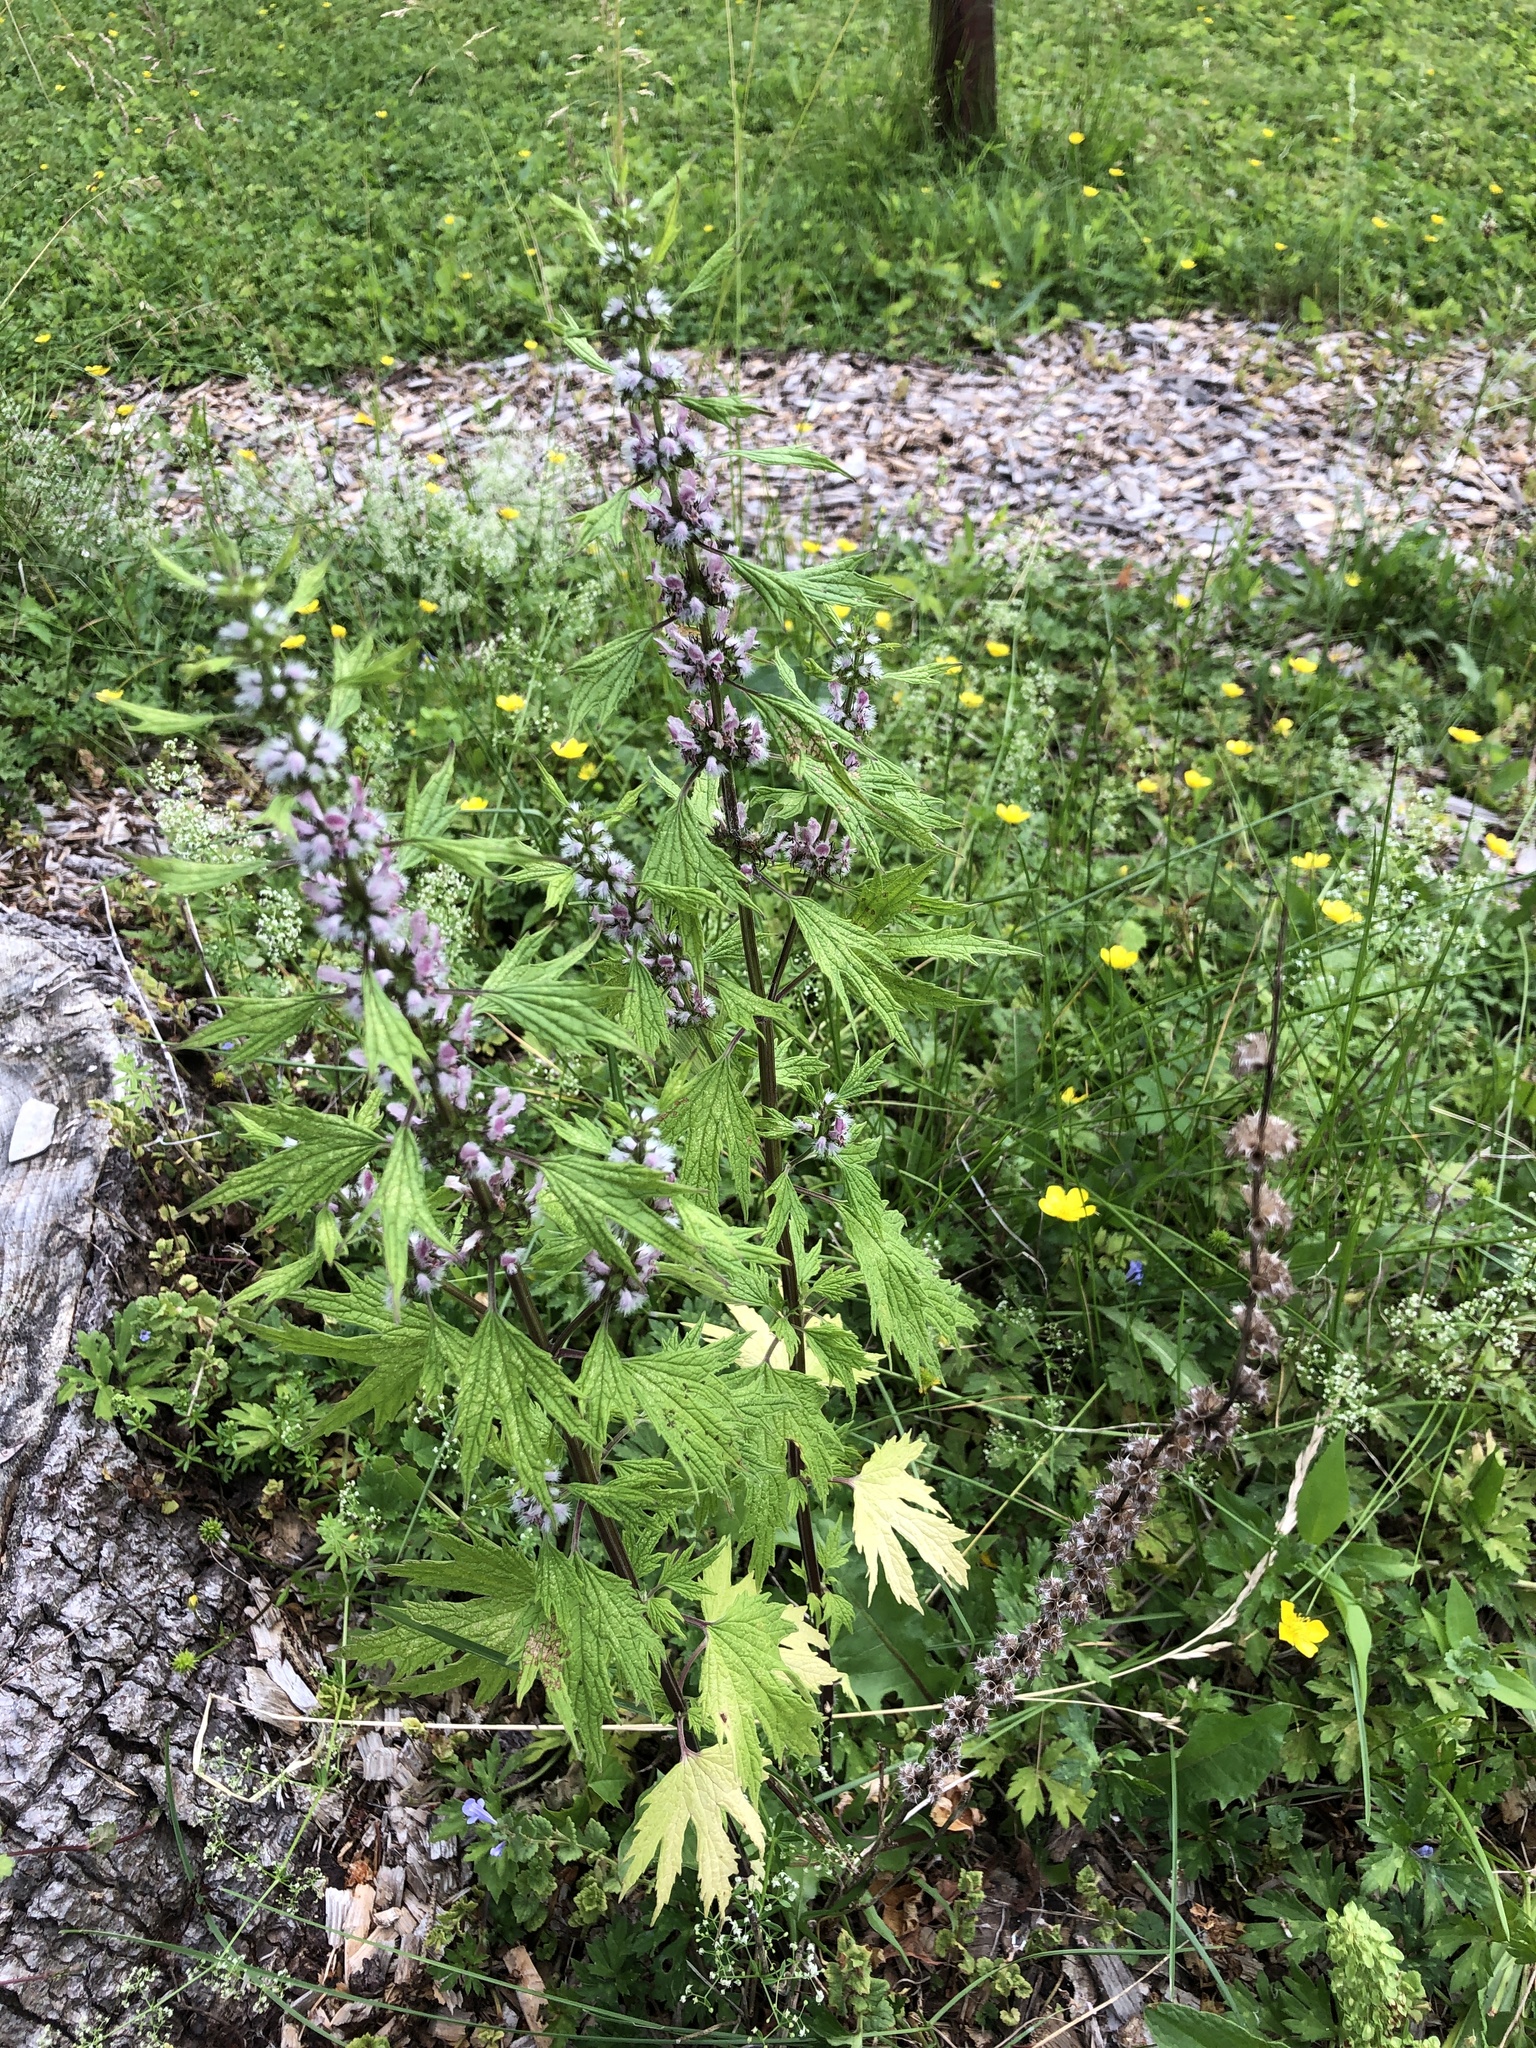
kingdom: Plantae
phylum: Tracheophyta
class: Magnoliopsida
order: Lamiales
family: Lamiaceae
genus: Leonurus
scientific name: Leonurus cardiaca
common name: Motherwort
